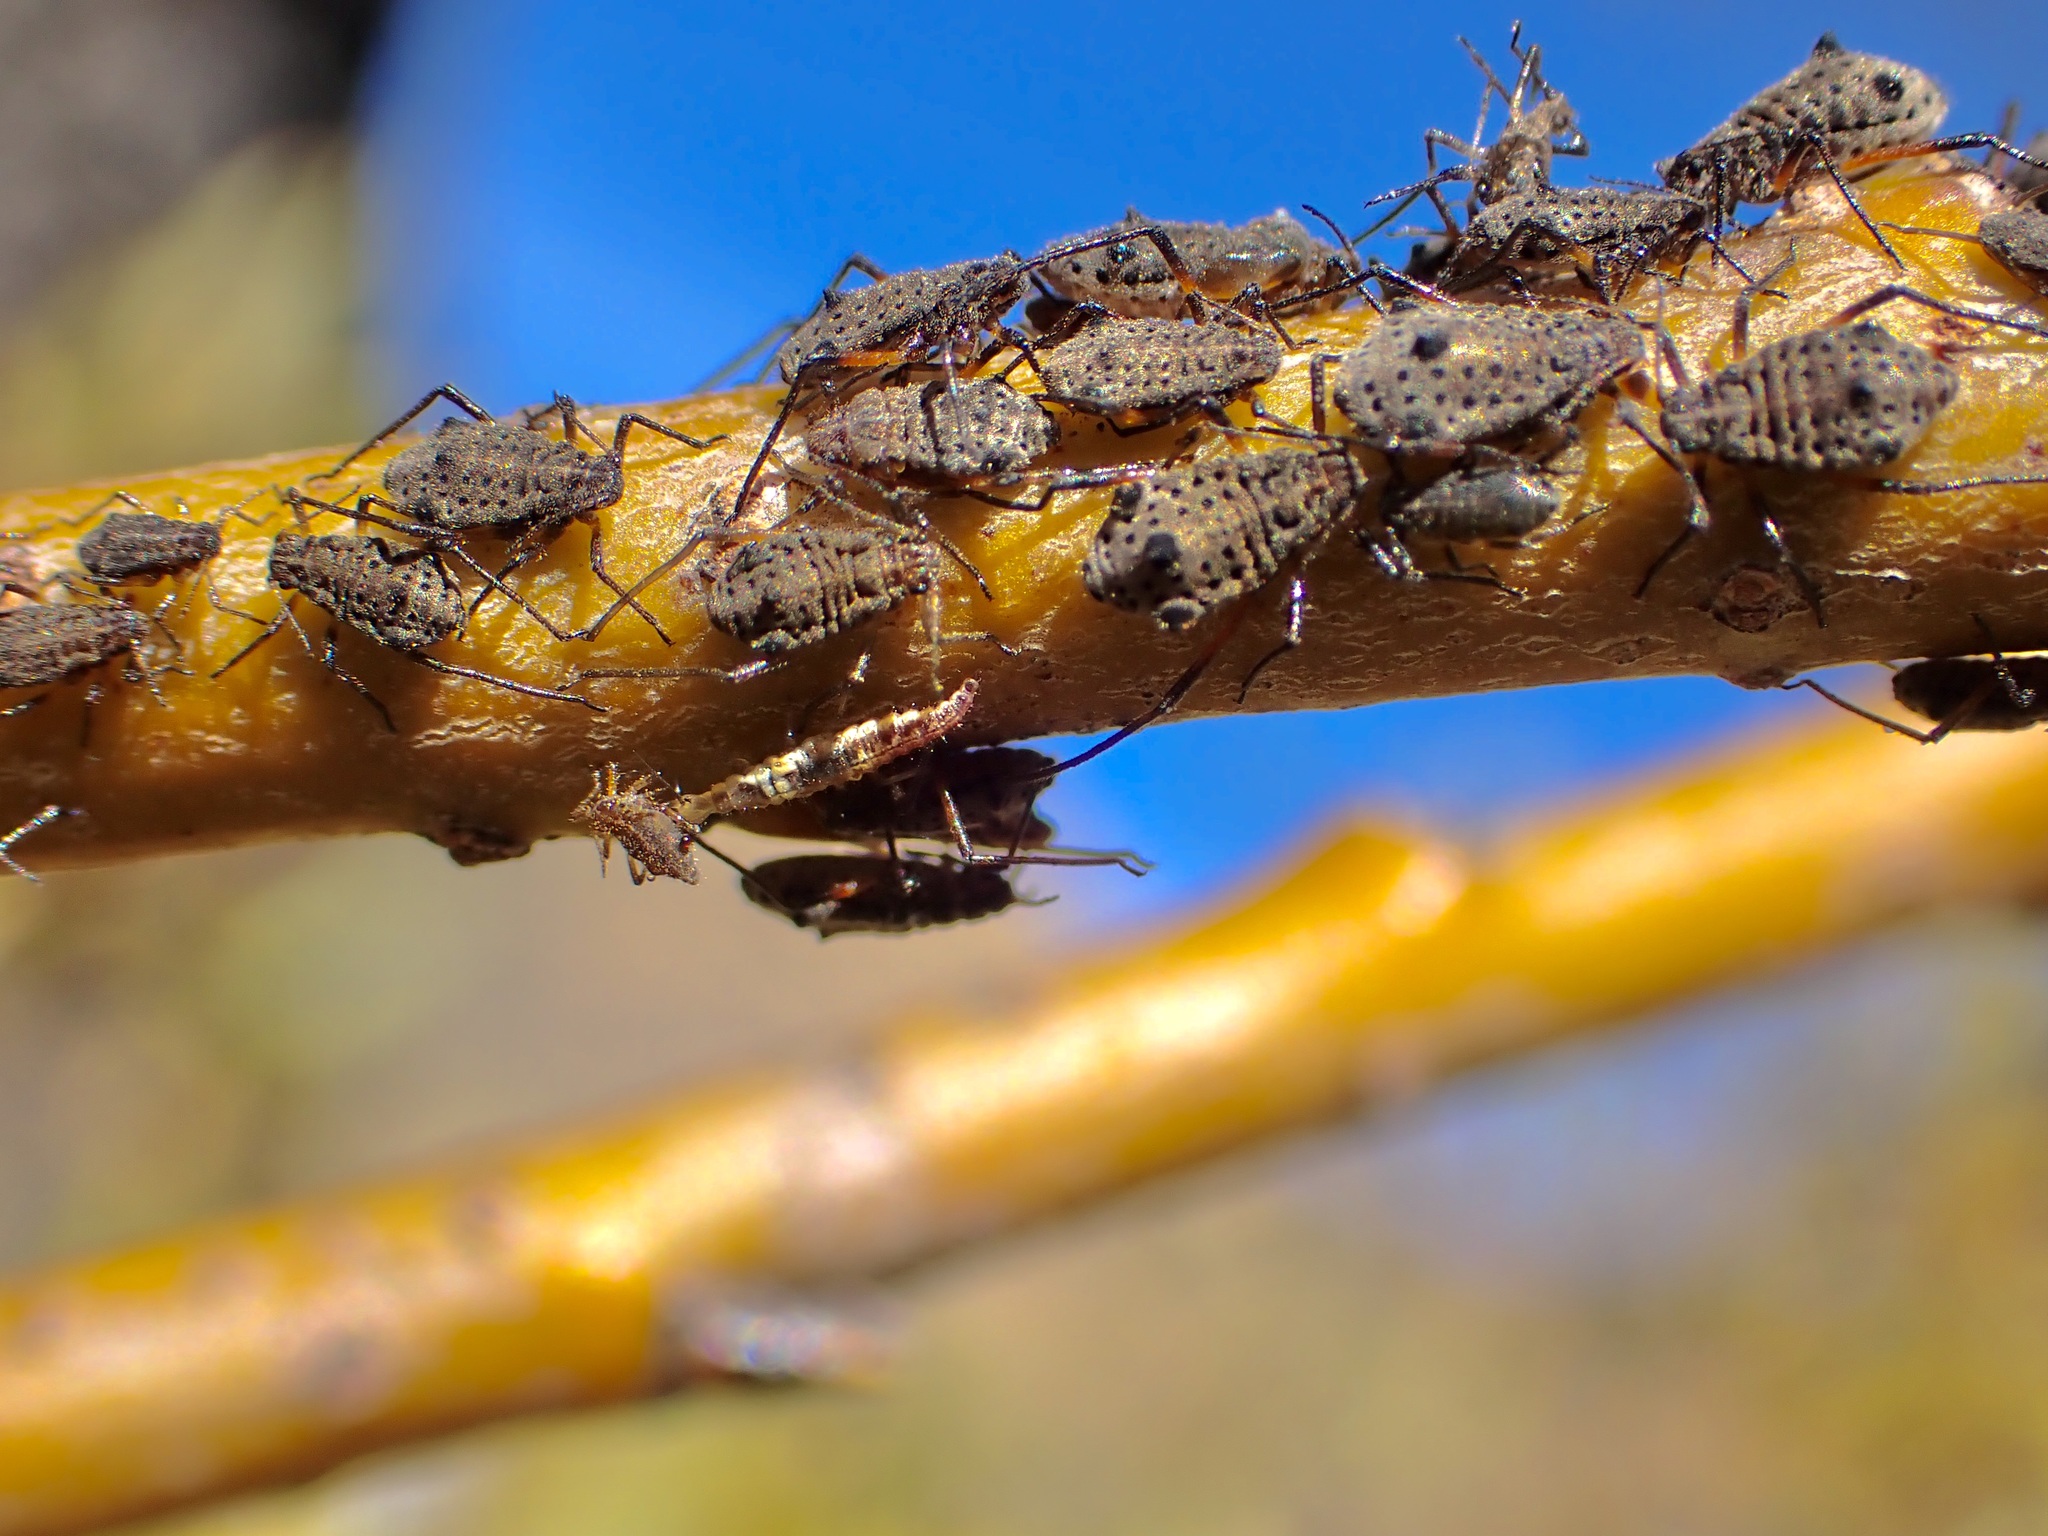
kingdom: Animalia
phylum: Arthropoda
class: Insecta
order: Hemiptera
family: Aphididae
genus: Tuberolachnus
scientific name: Tuberolachnus salignus
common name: Giant willow aphid
